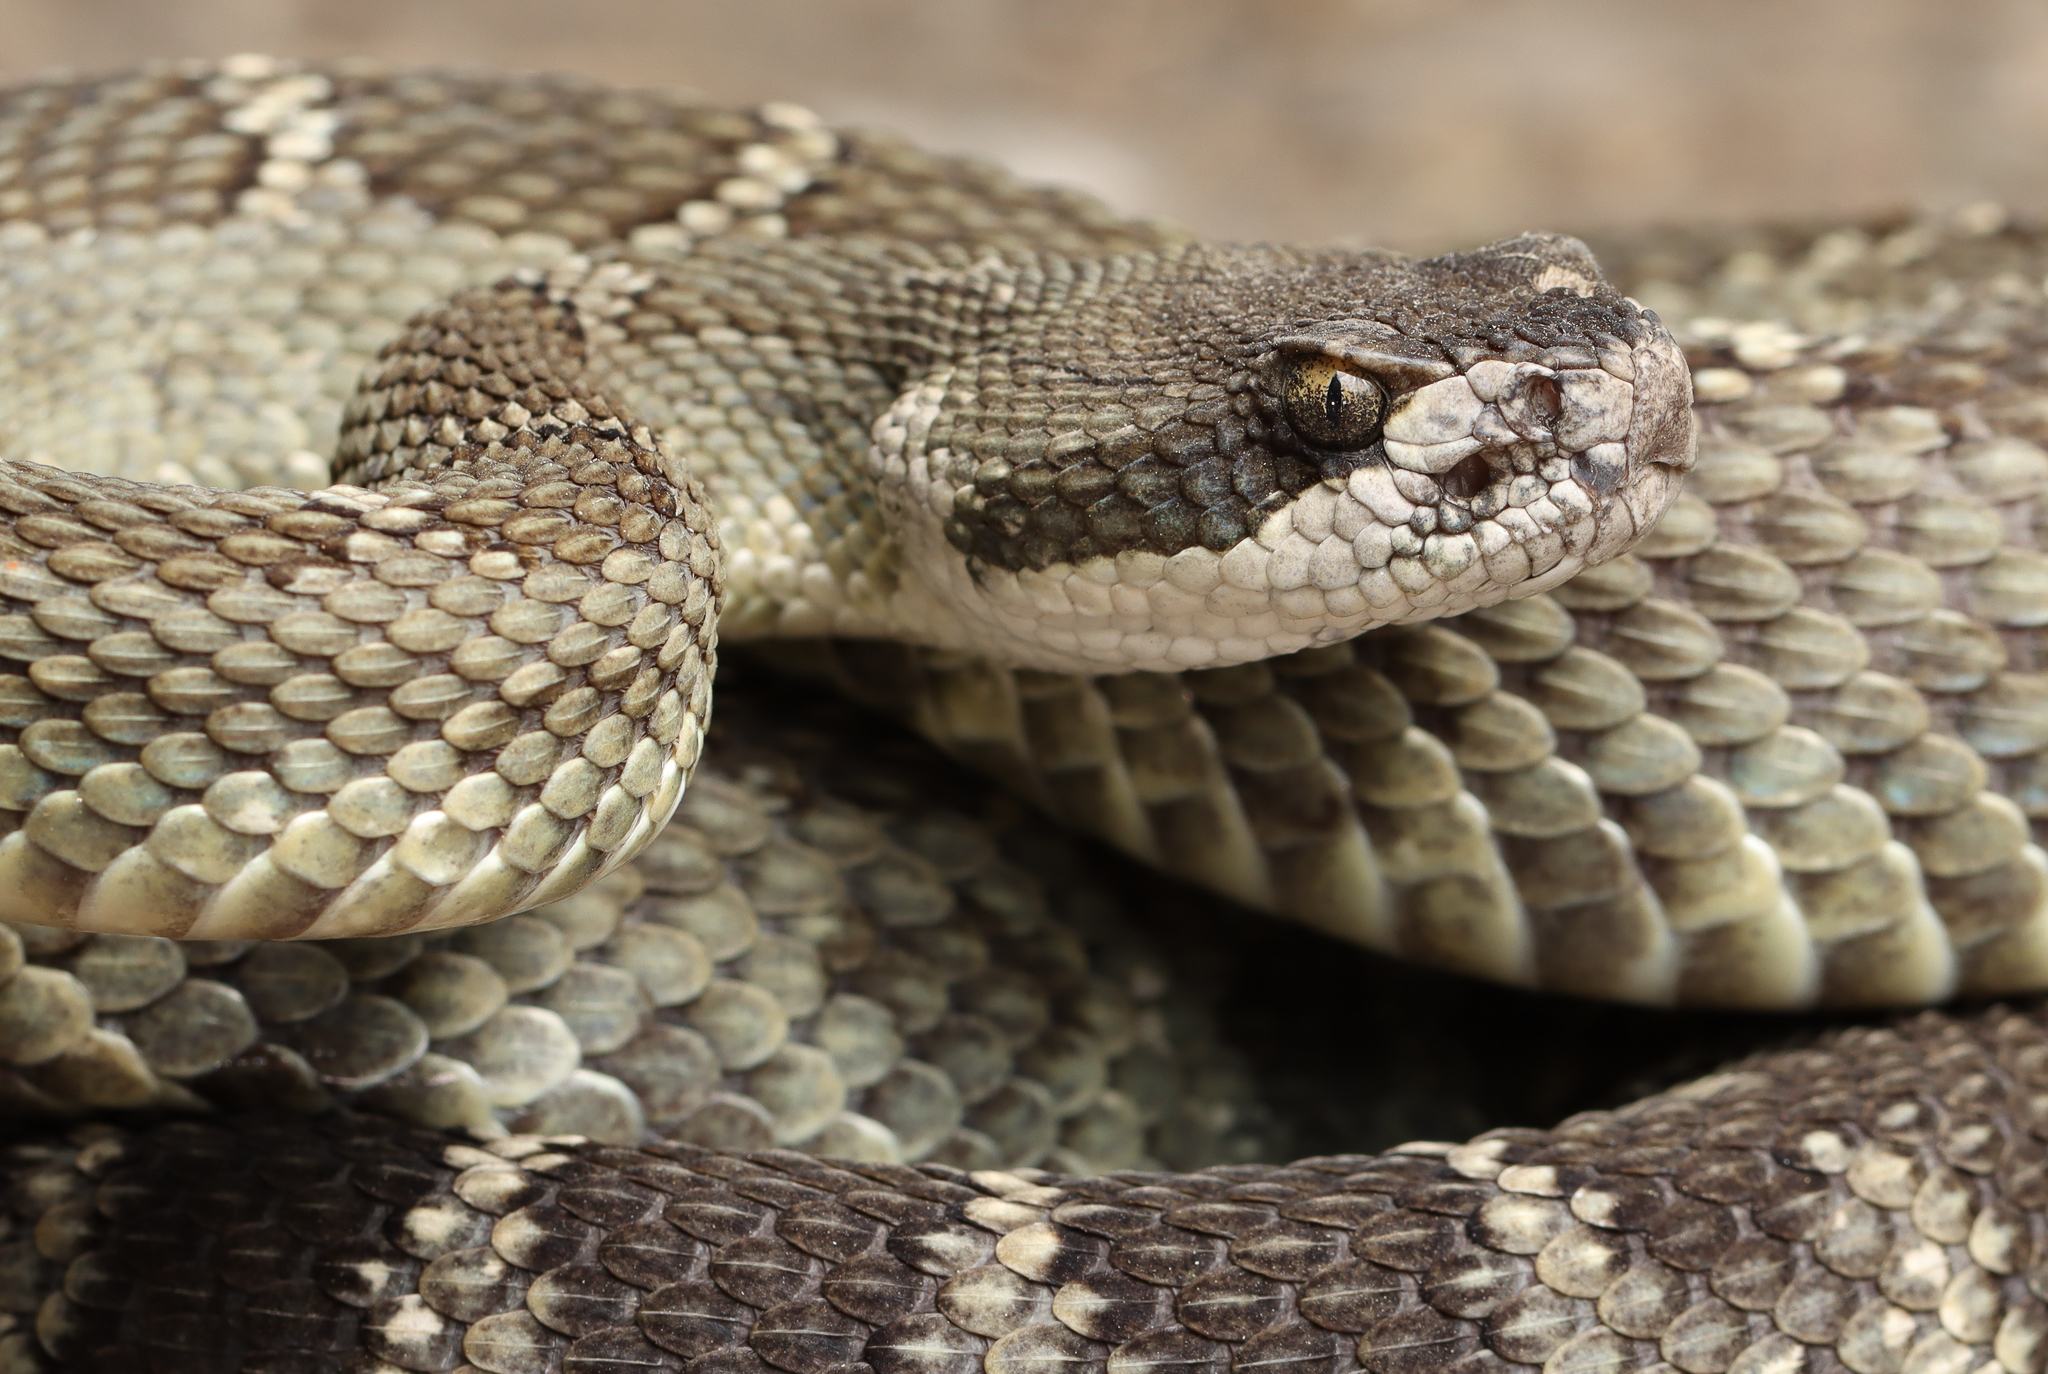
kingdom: Animalia
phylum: Chordata
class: Squamata
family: Viperidae
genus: Crotalus
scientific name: Crotalus oreganus
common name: Abyssus
